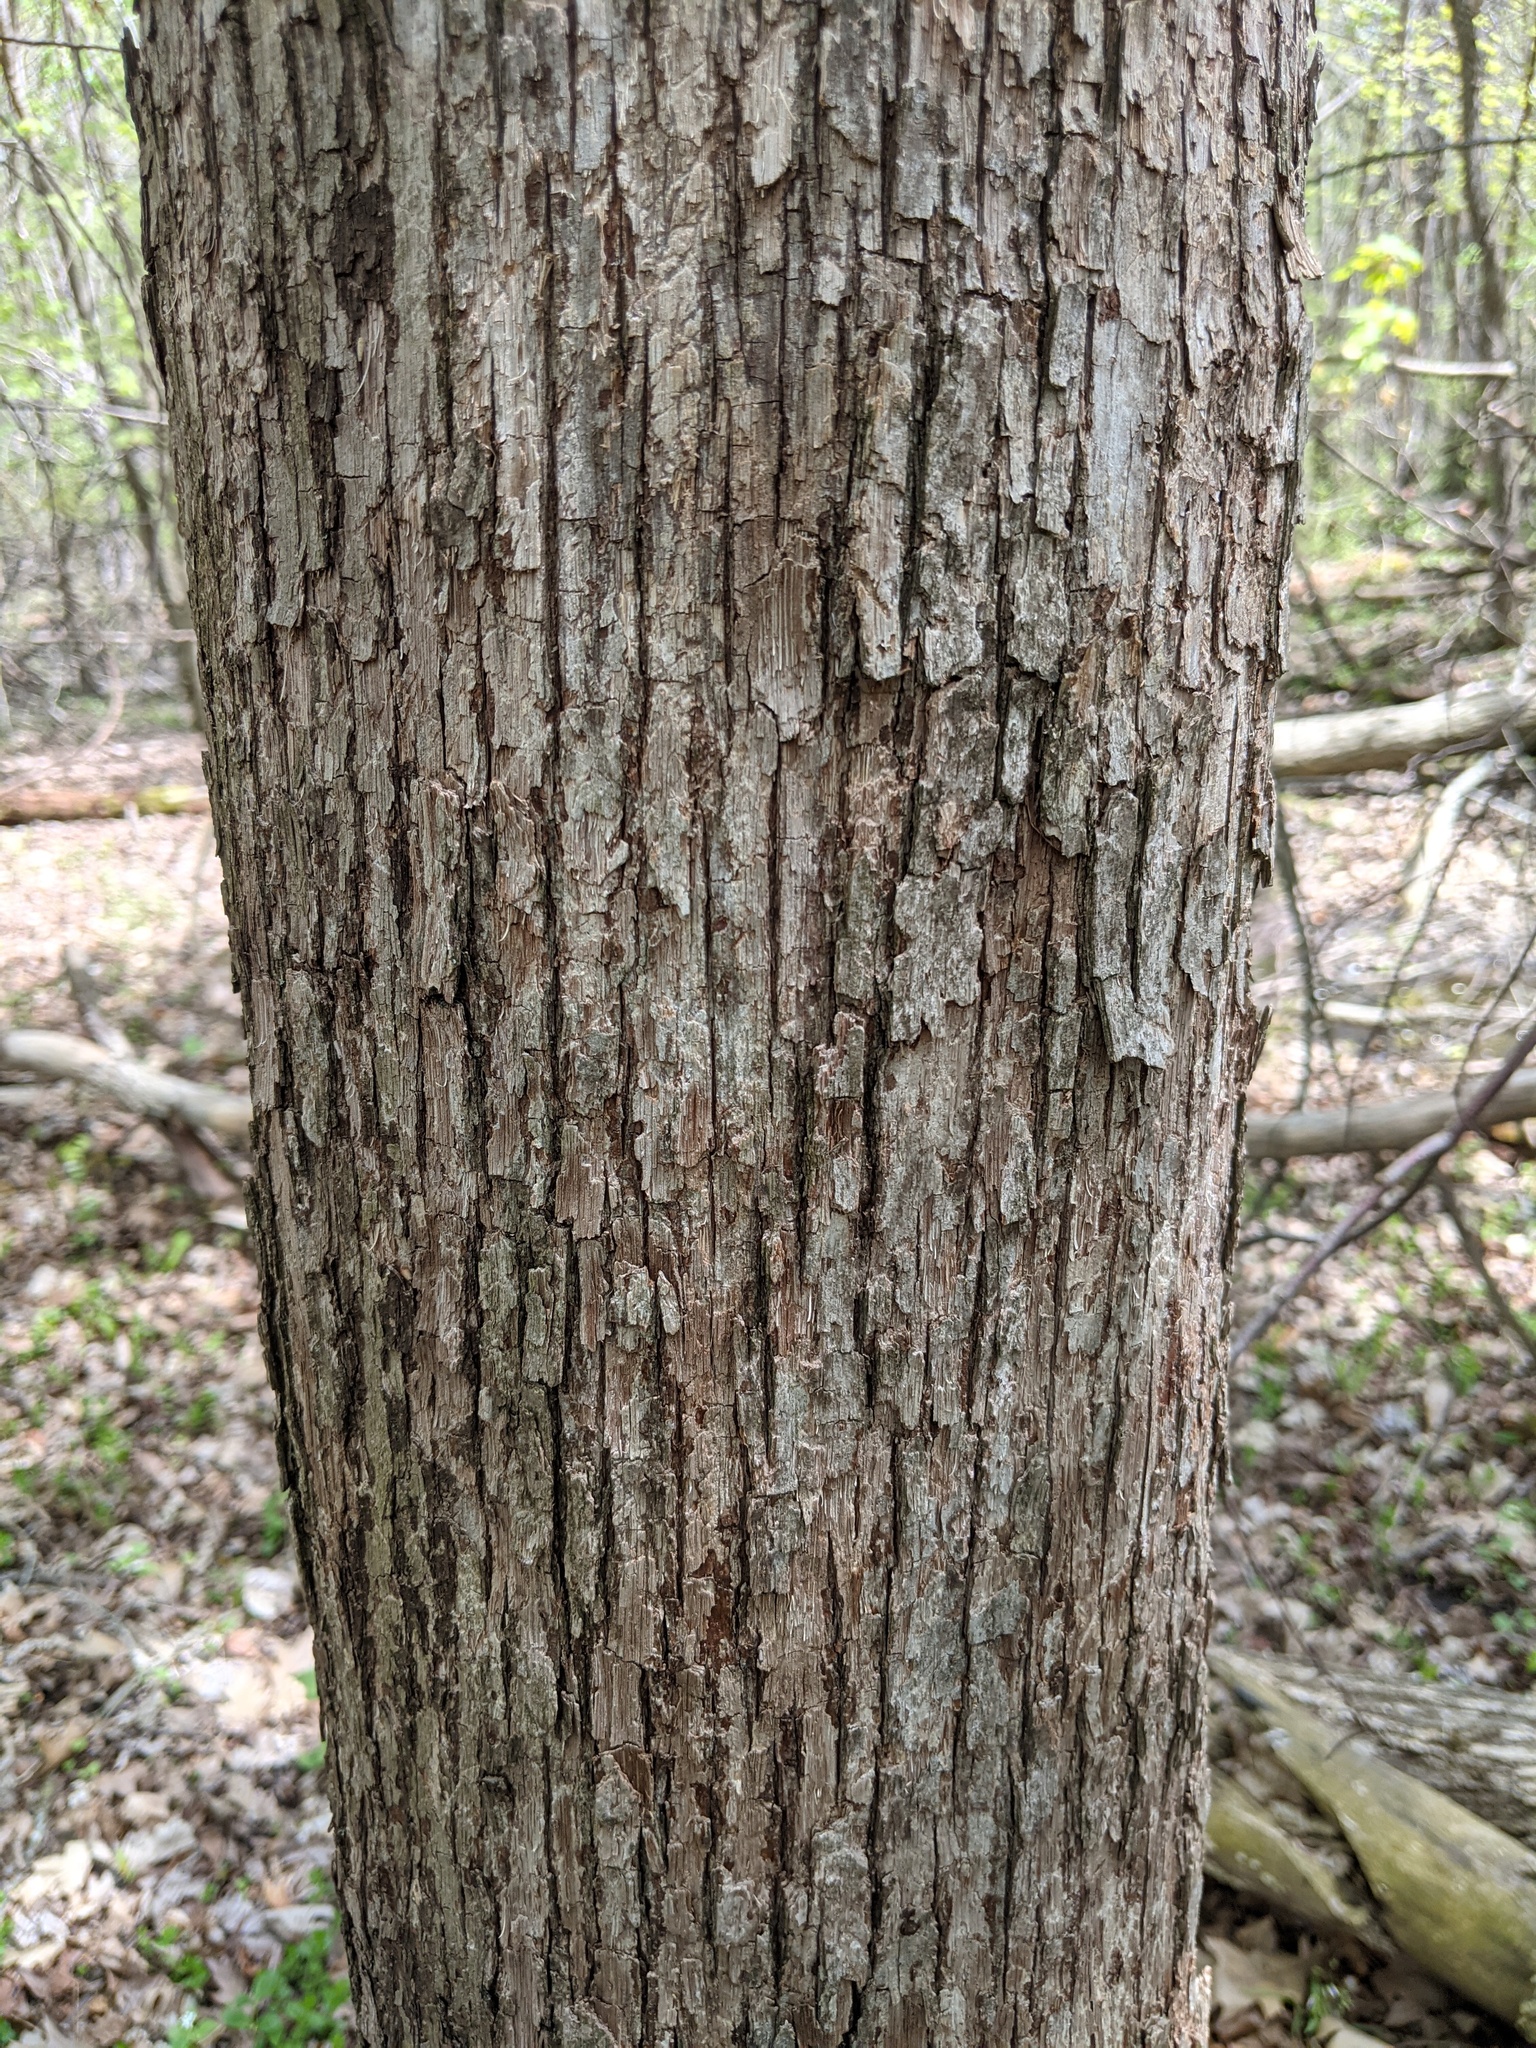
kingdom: Plantae
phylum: Tracheophyta
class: Magnoliopsida
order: Fagales
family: Betulaceae
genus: Ostrya
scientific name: Ostrya virginiana
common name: Ironwood
